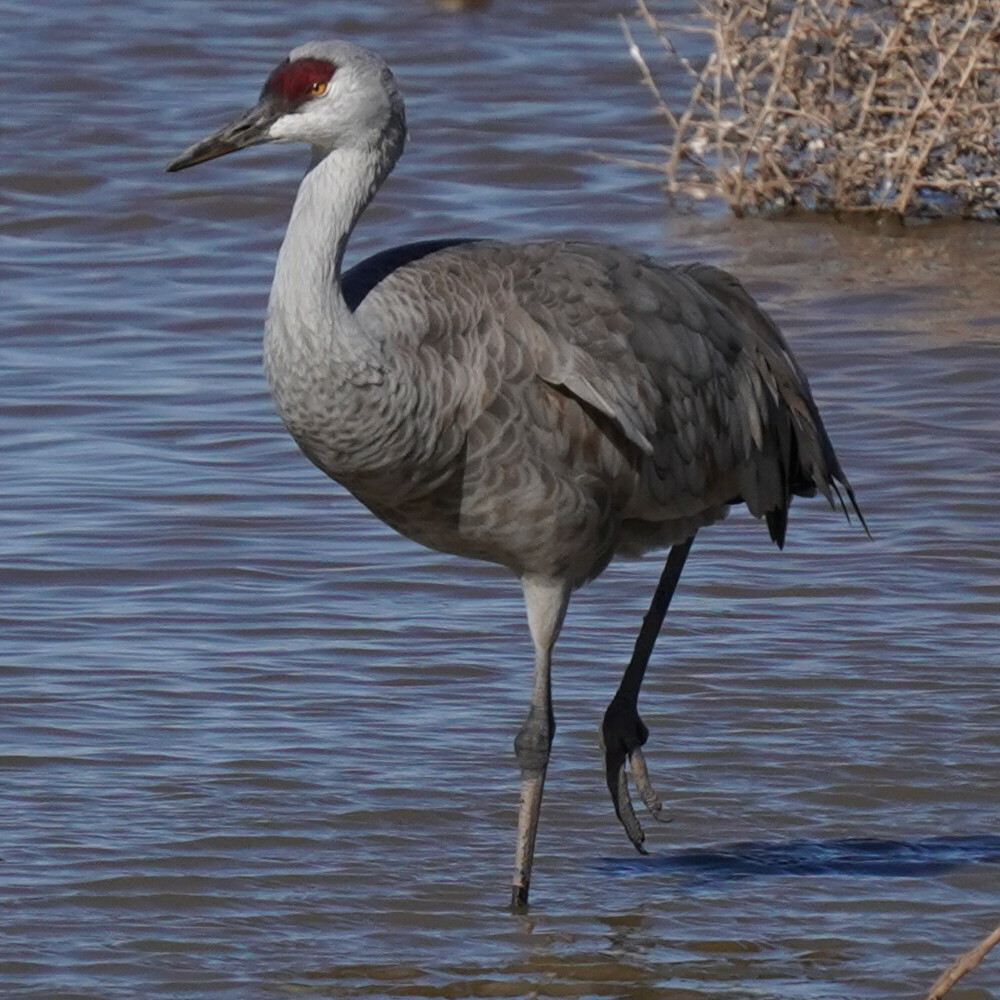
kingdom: Animalia
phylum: Chordata
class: Aves
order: Gruiformes
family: Gruidae
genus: Grus
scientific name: Grus canadensis
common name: Sandhill crane
